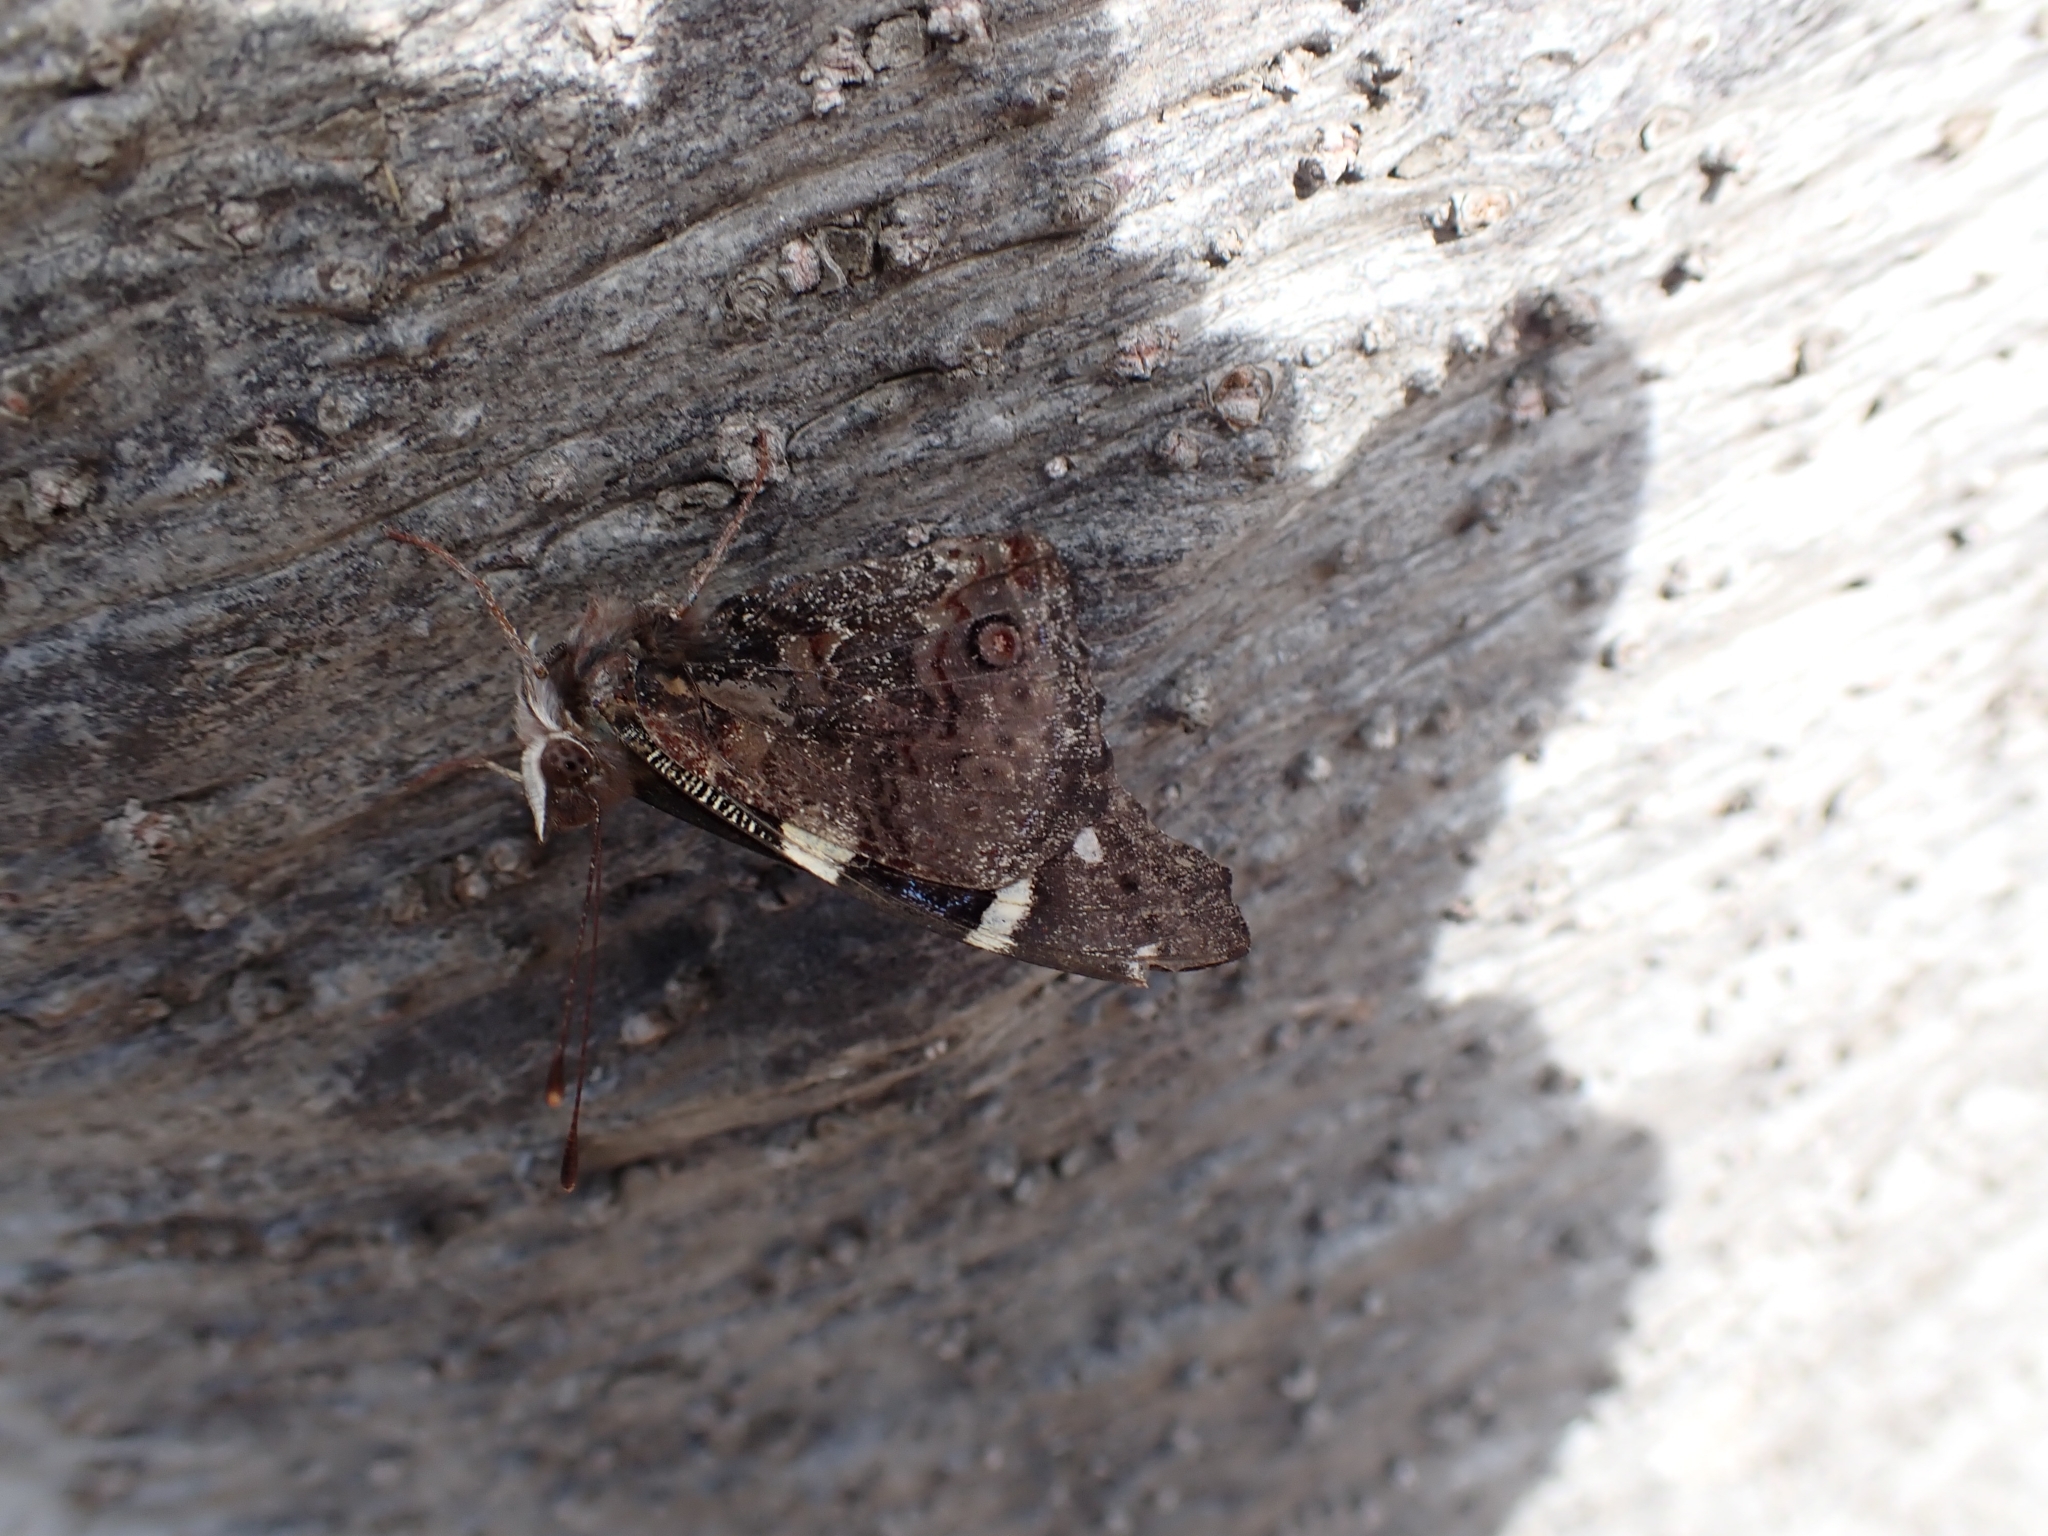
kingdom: Animalia
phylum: Arthropoda
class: Insecta
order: Lepidoptera
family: Nymphalidae
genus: Vanessa
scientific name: Vanessa itea
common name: Yellow admiral
